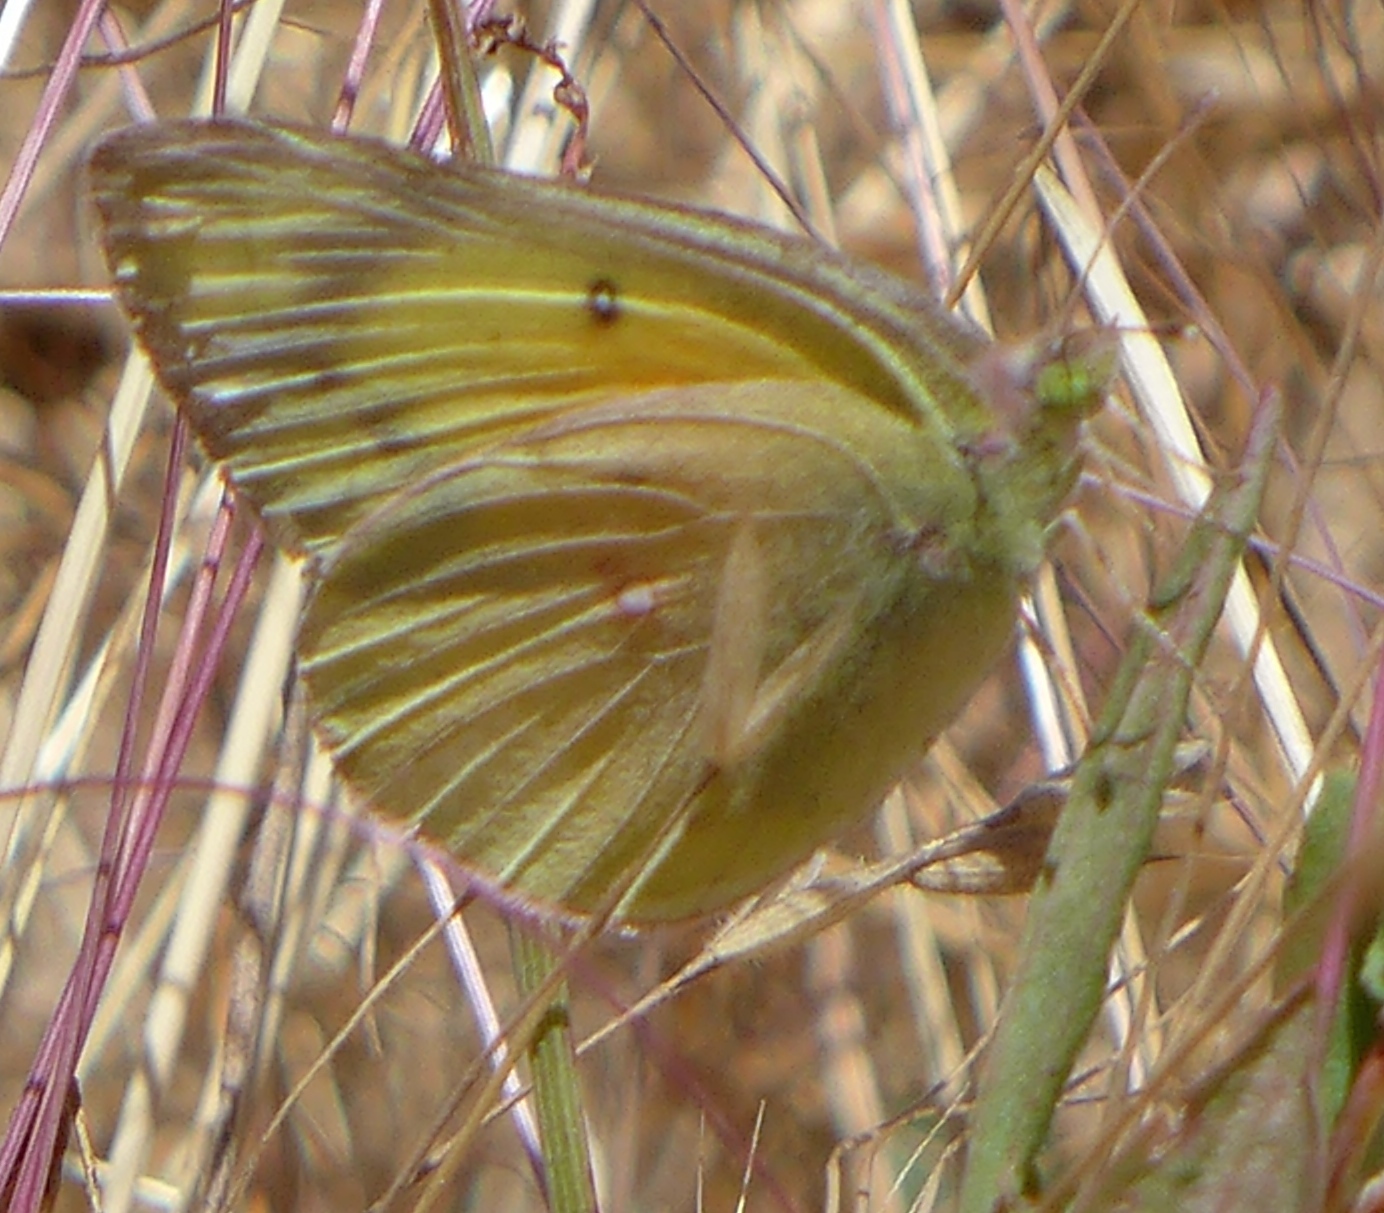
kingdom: Animalia
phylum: Arthropoda
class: Insecta
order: Lepidoptera
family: Pieridae
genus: Colias
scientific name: Colias eurytheme
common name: Alfalfa butterfly
